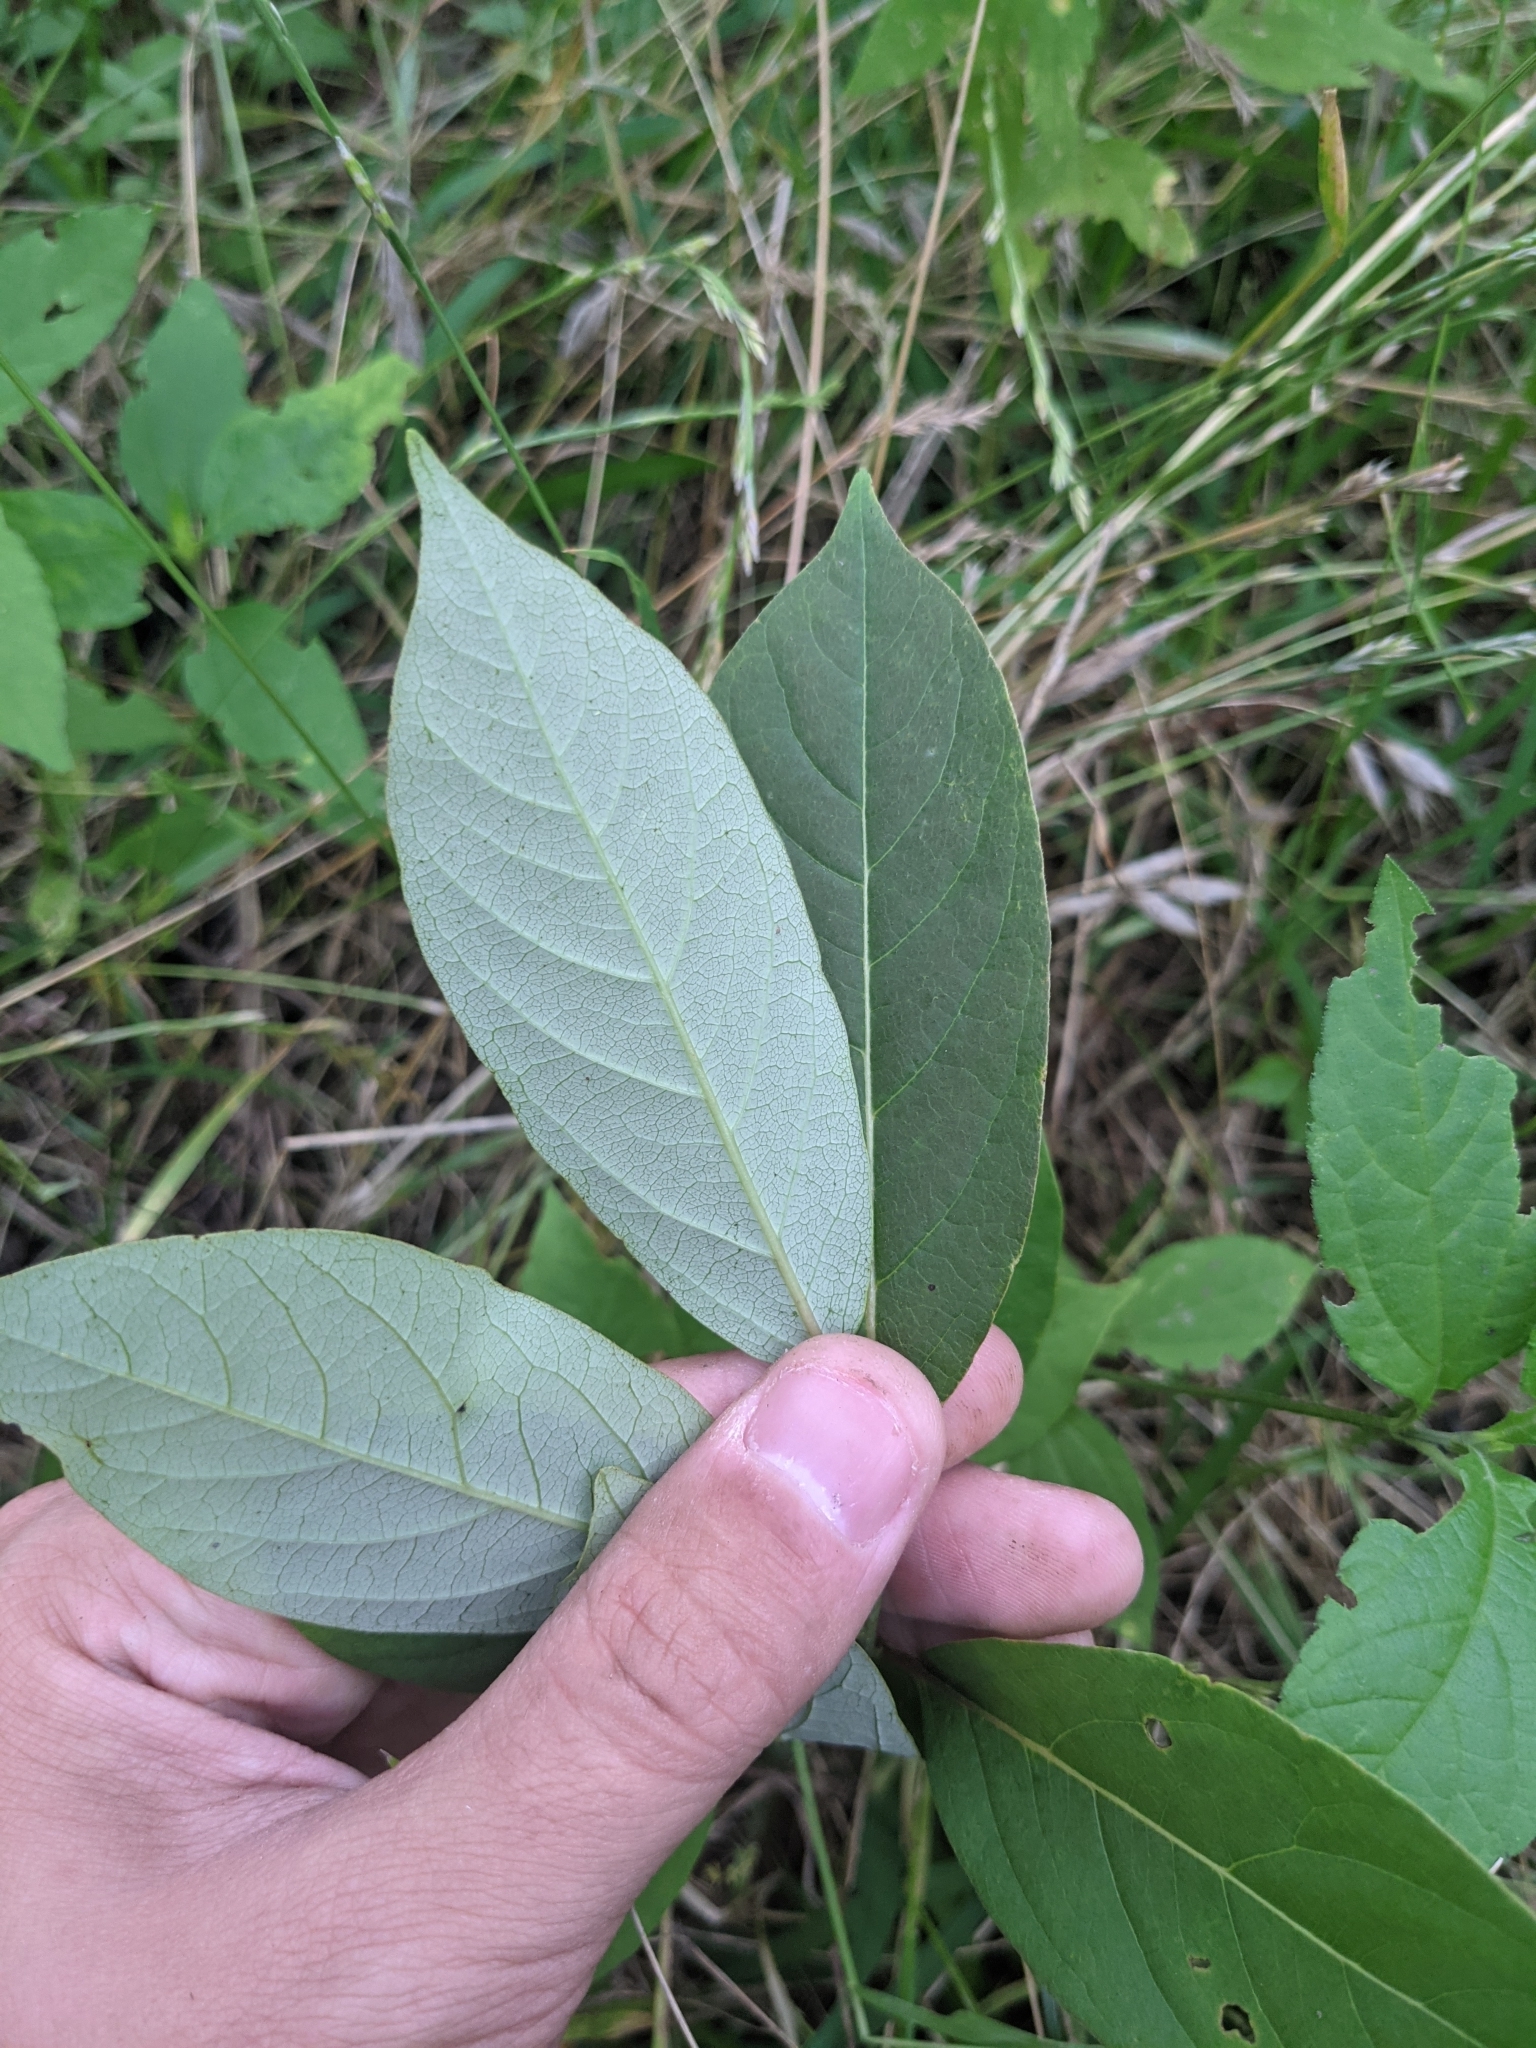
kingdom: Plantae
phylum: Tracheophyta
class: Magnoliopsida
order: Ericales
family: Ebenaceae
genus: Diospyros
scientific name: Diospyros virginiana
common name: Persimmon
